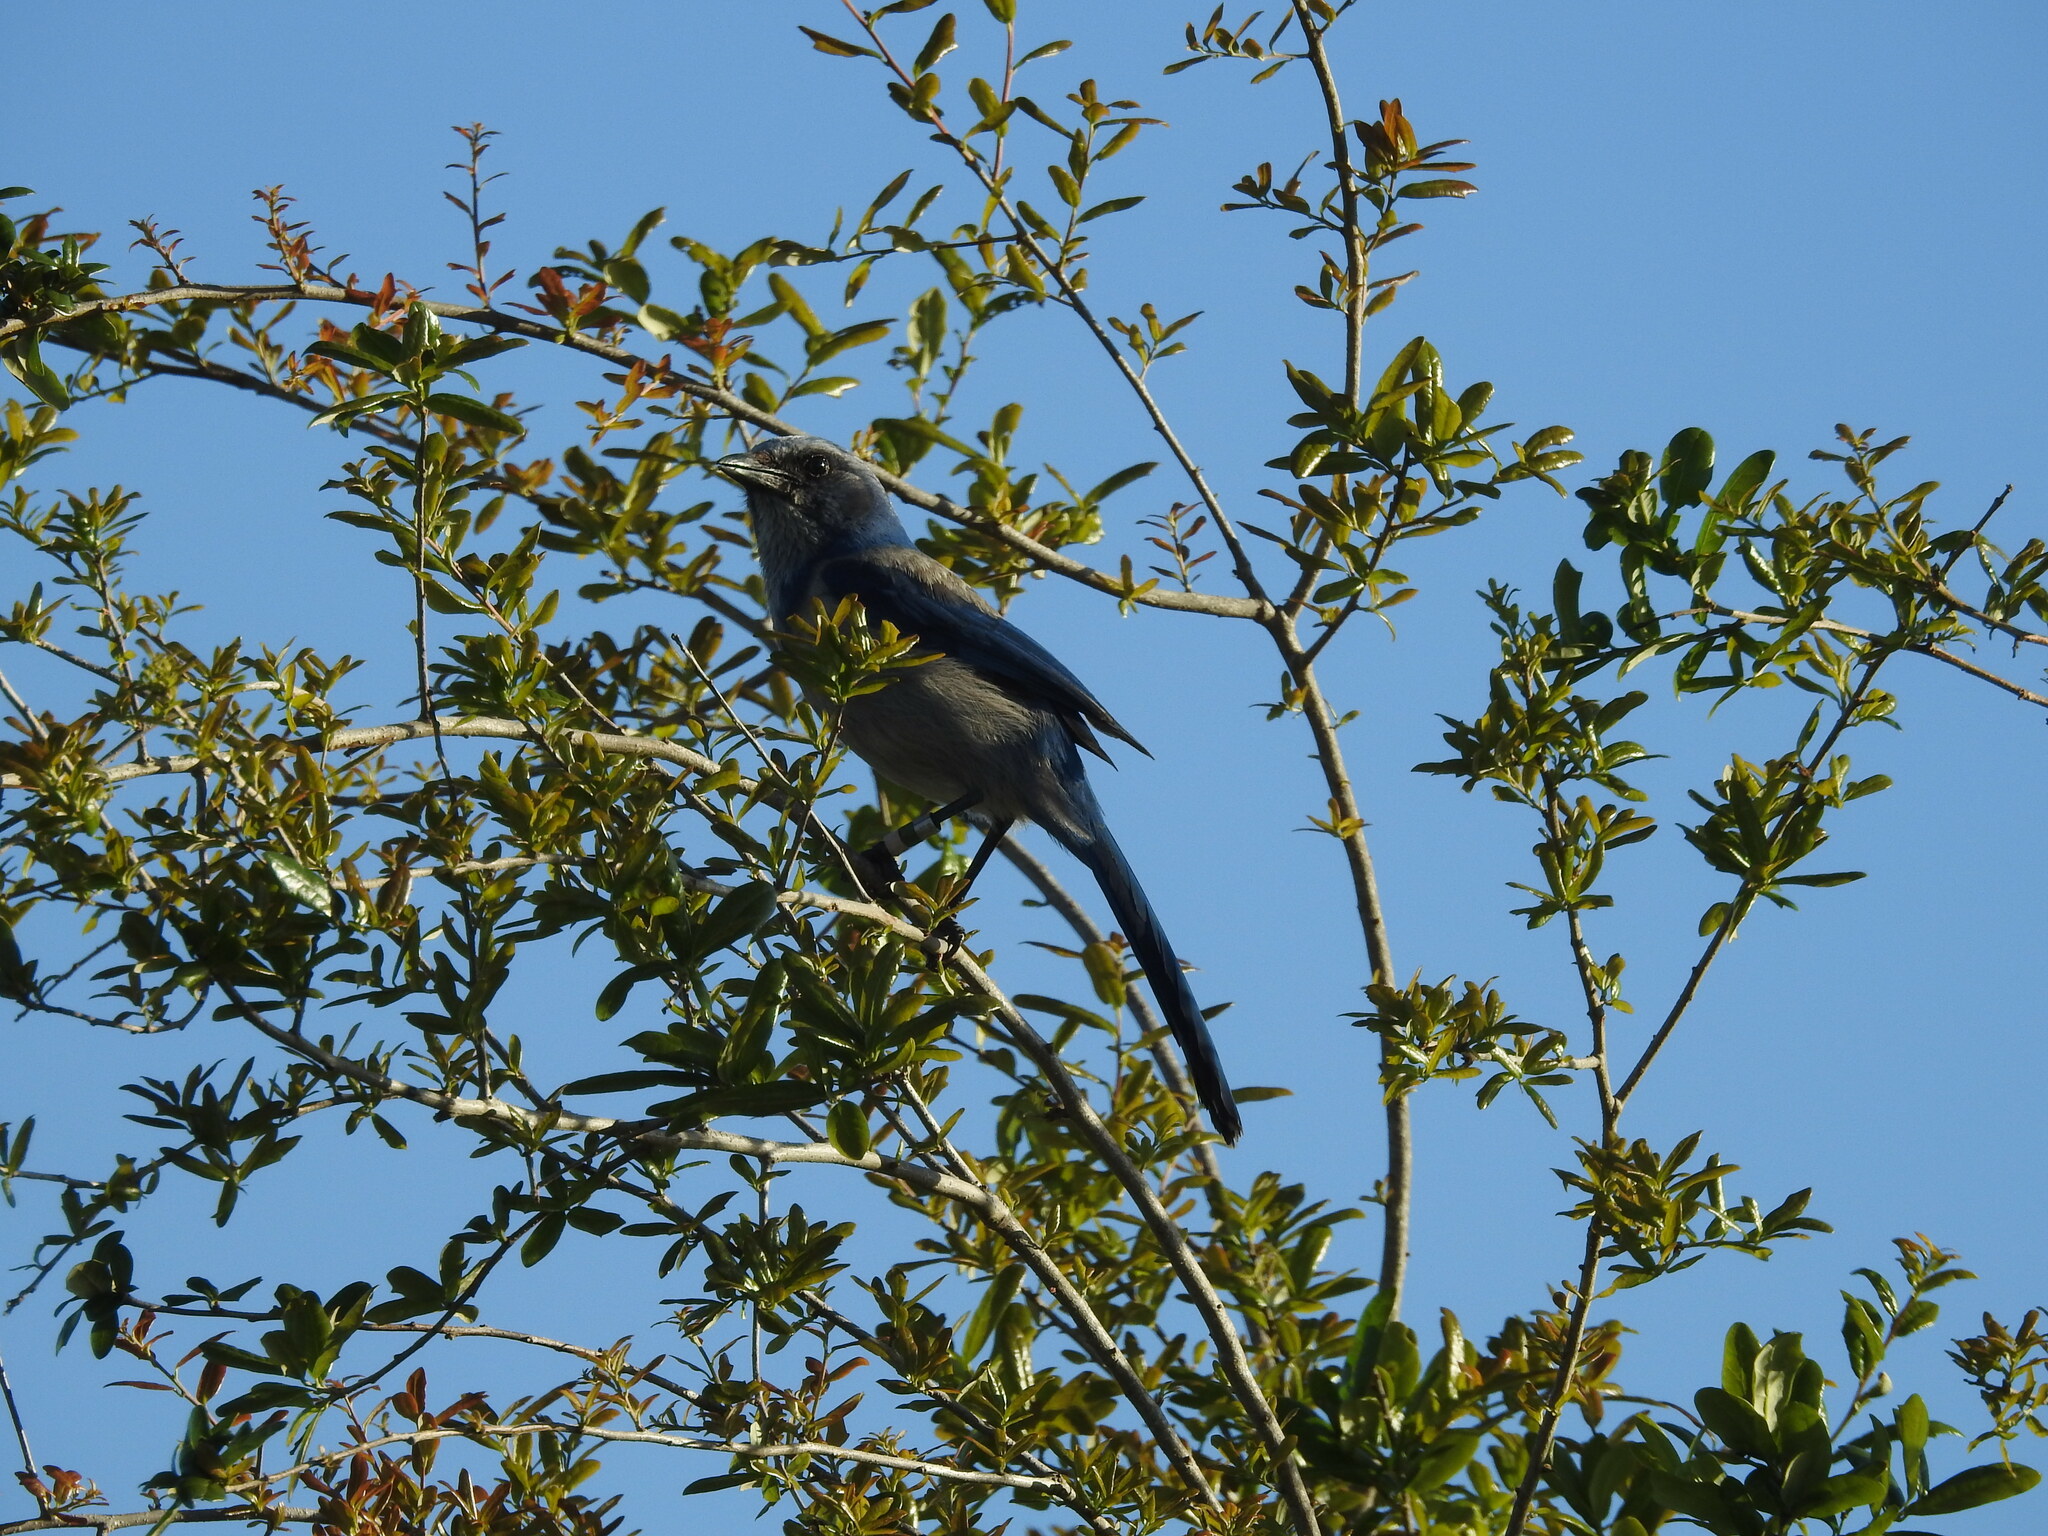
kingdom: Animalia
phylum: Chordata
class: Aves
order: Passeriformes
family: Corvidae
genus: Aphelocoma
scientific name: Aphelocoma coerulescens
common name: Florida scrub jay
